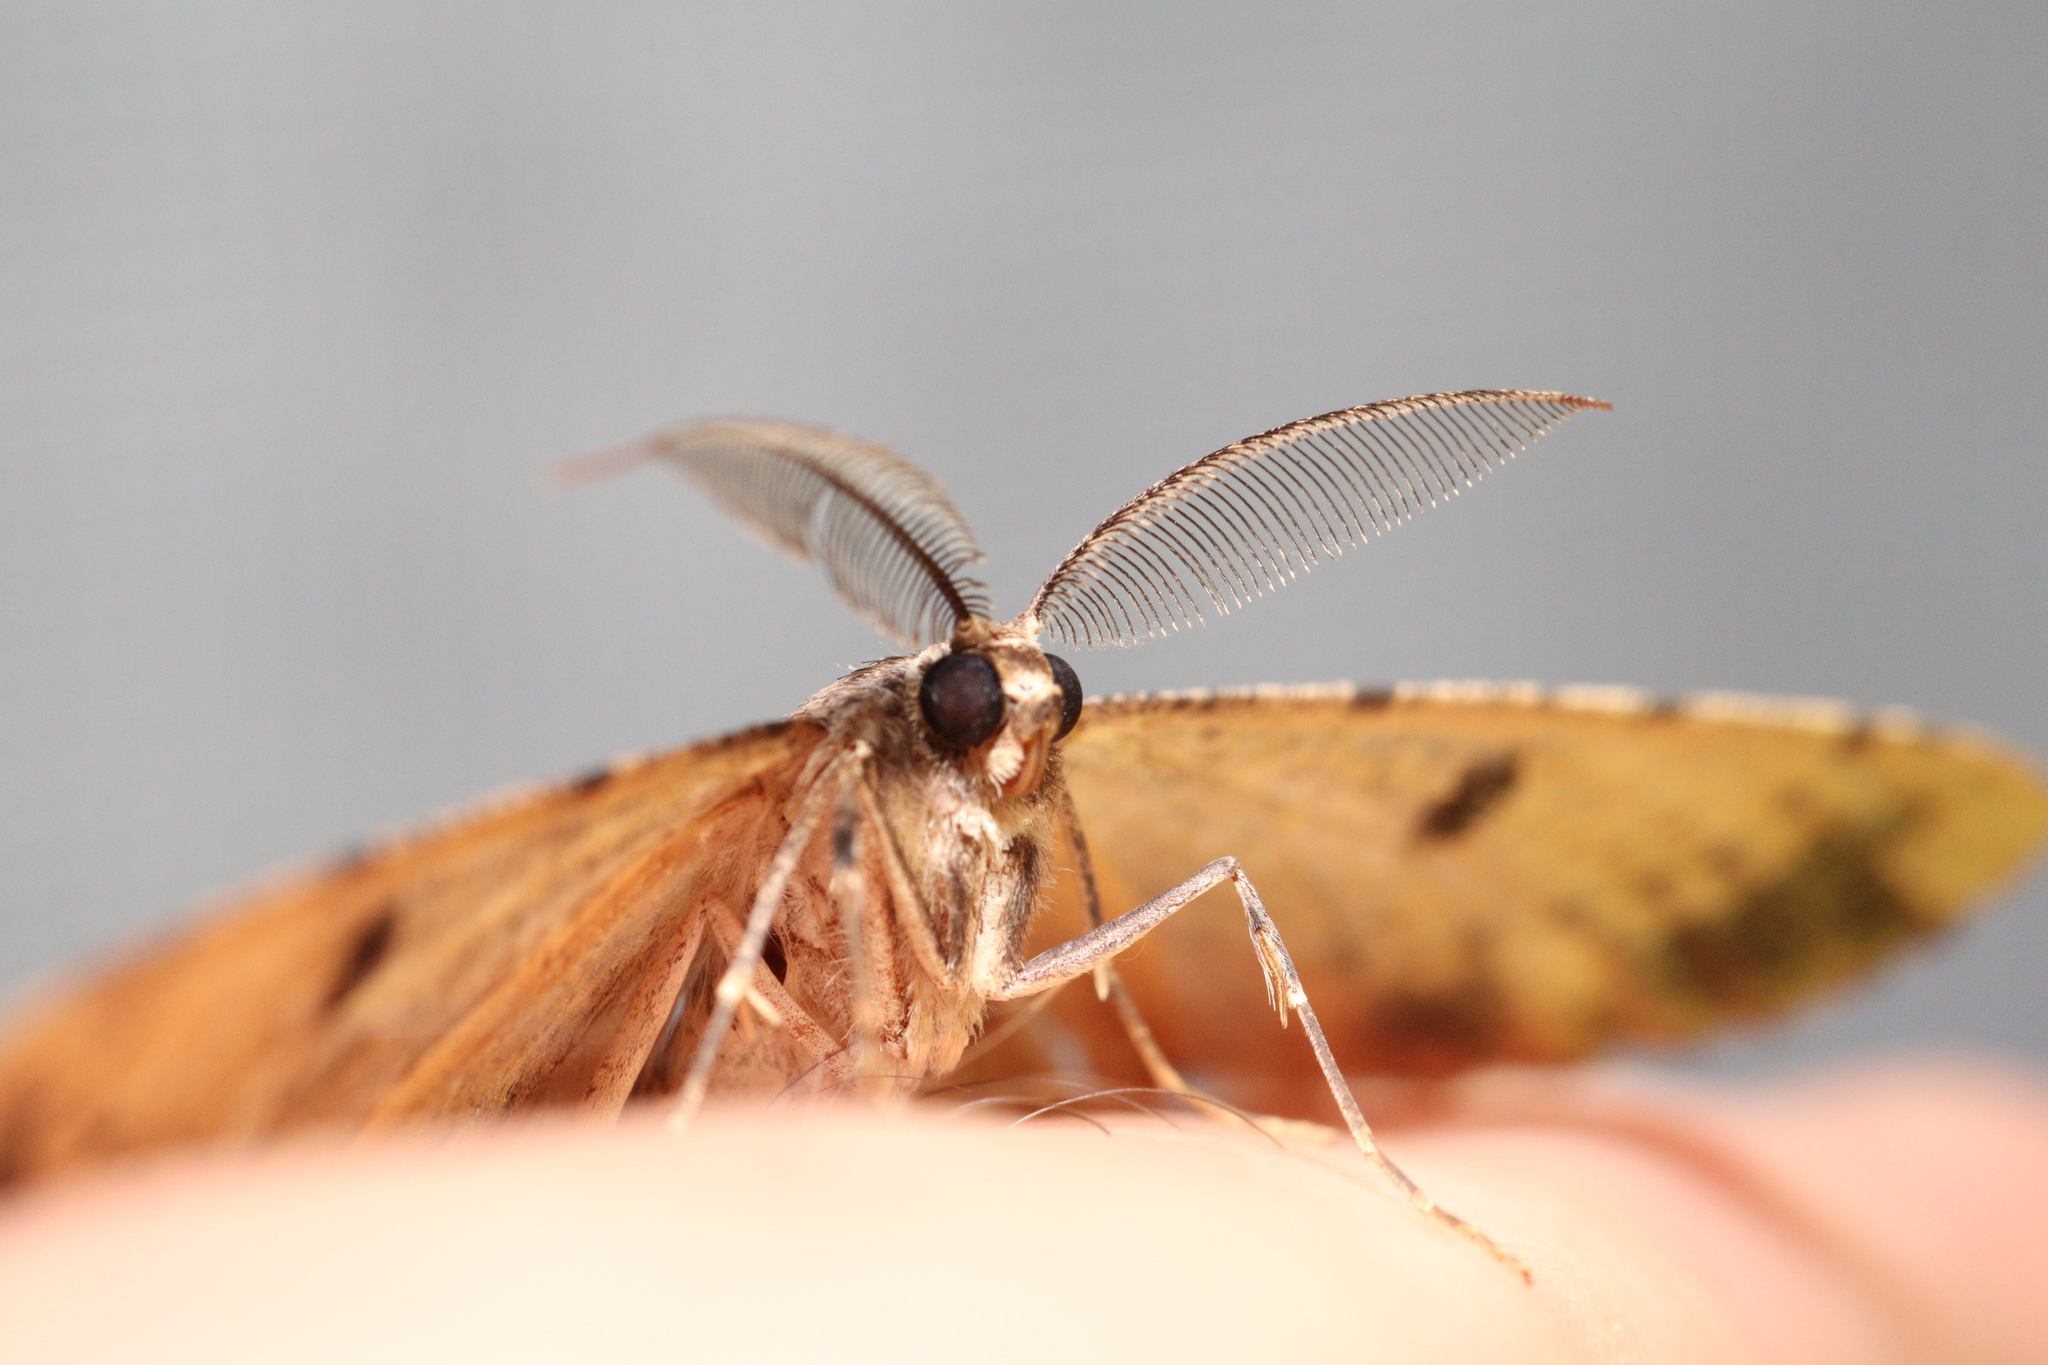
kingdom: Animalia
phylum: Arthropoda
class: Insecta
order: Lepidoptera
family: Geometridae
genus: Scioglyptis
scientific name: Scioglyptis lyciaria
